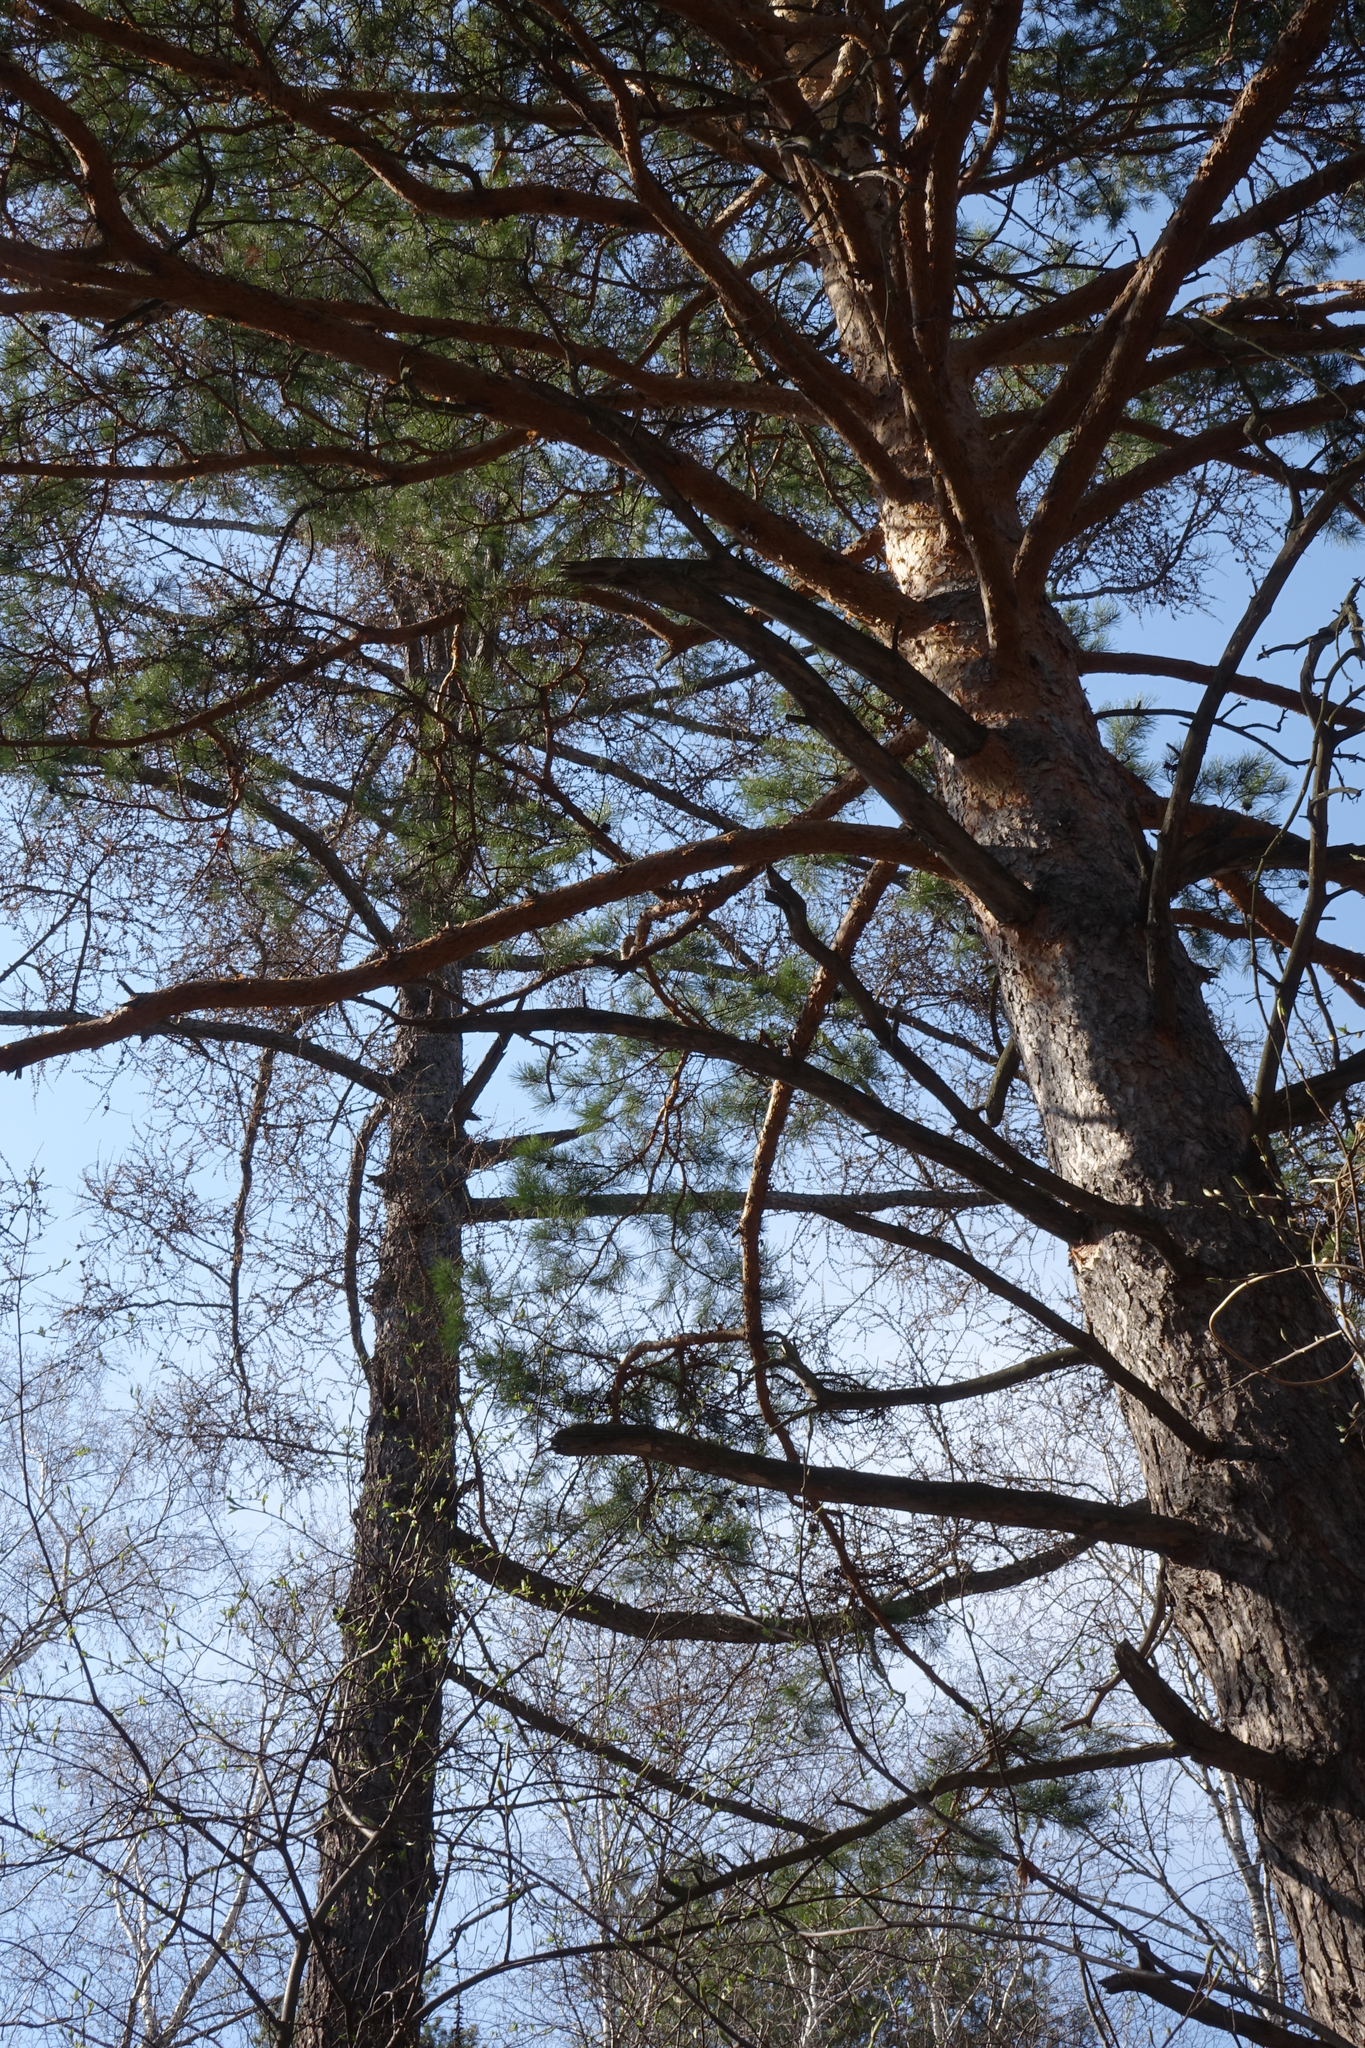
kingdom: Plantae
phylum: Tracheophyta
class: Pinopsida
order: Pinales
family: Pinaceae
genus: Larix
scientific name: Larix sibirica
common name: Siberian larch
